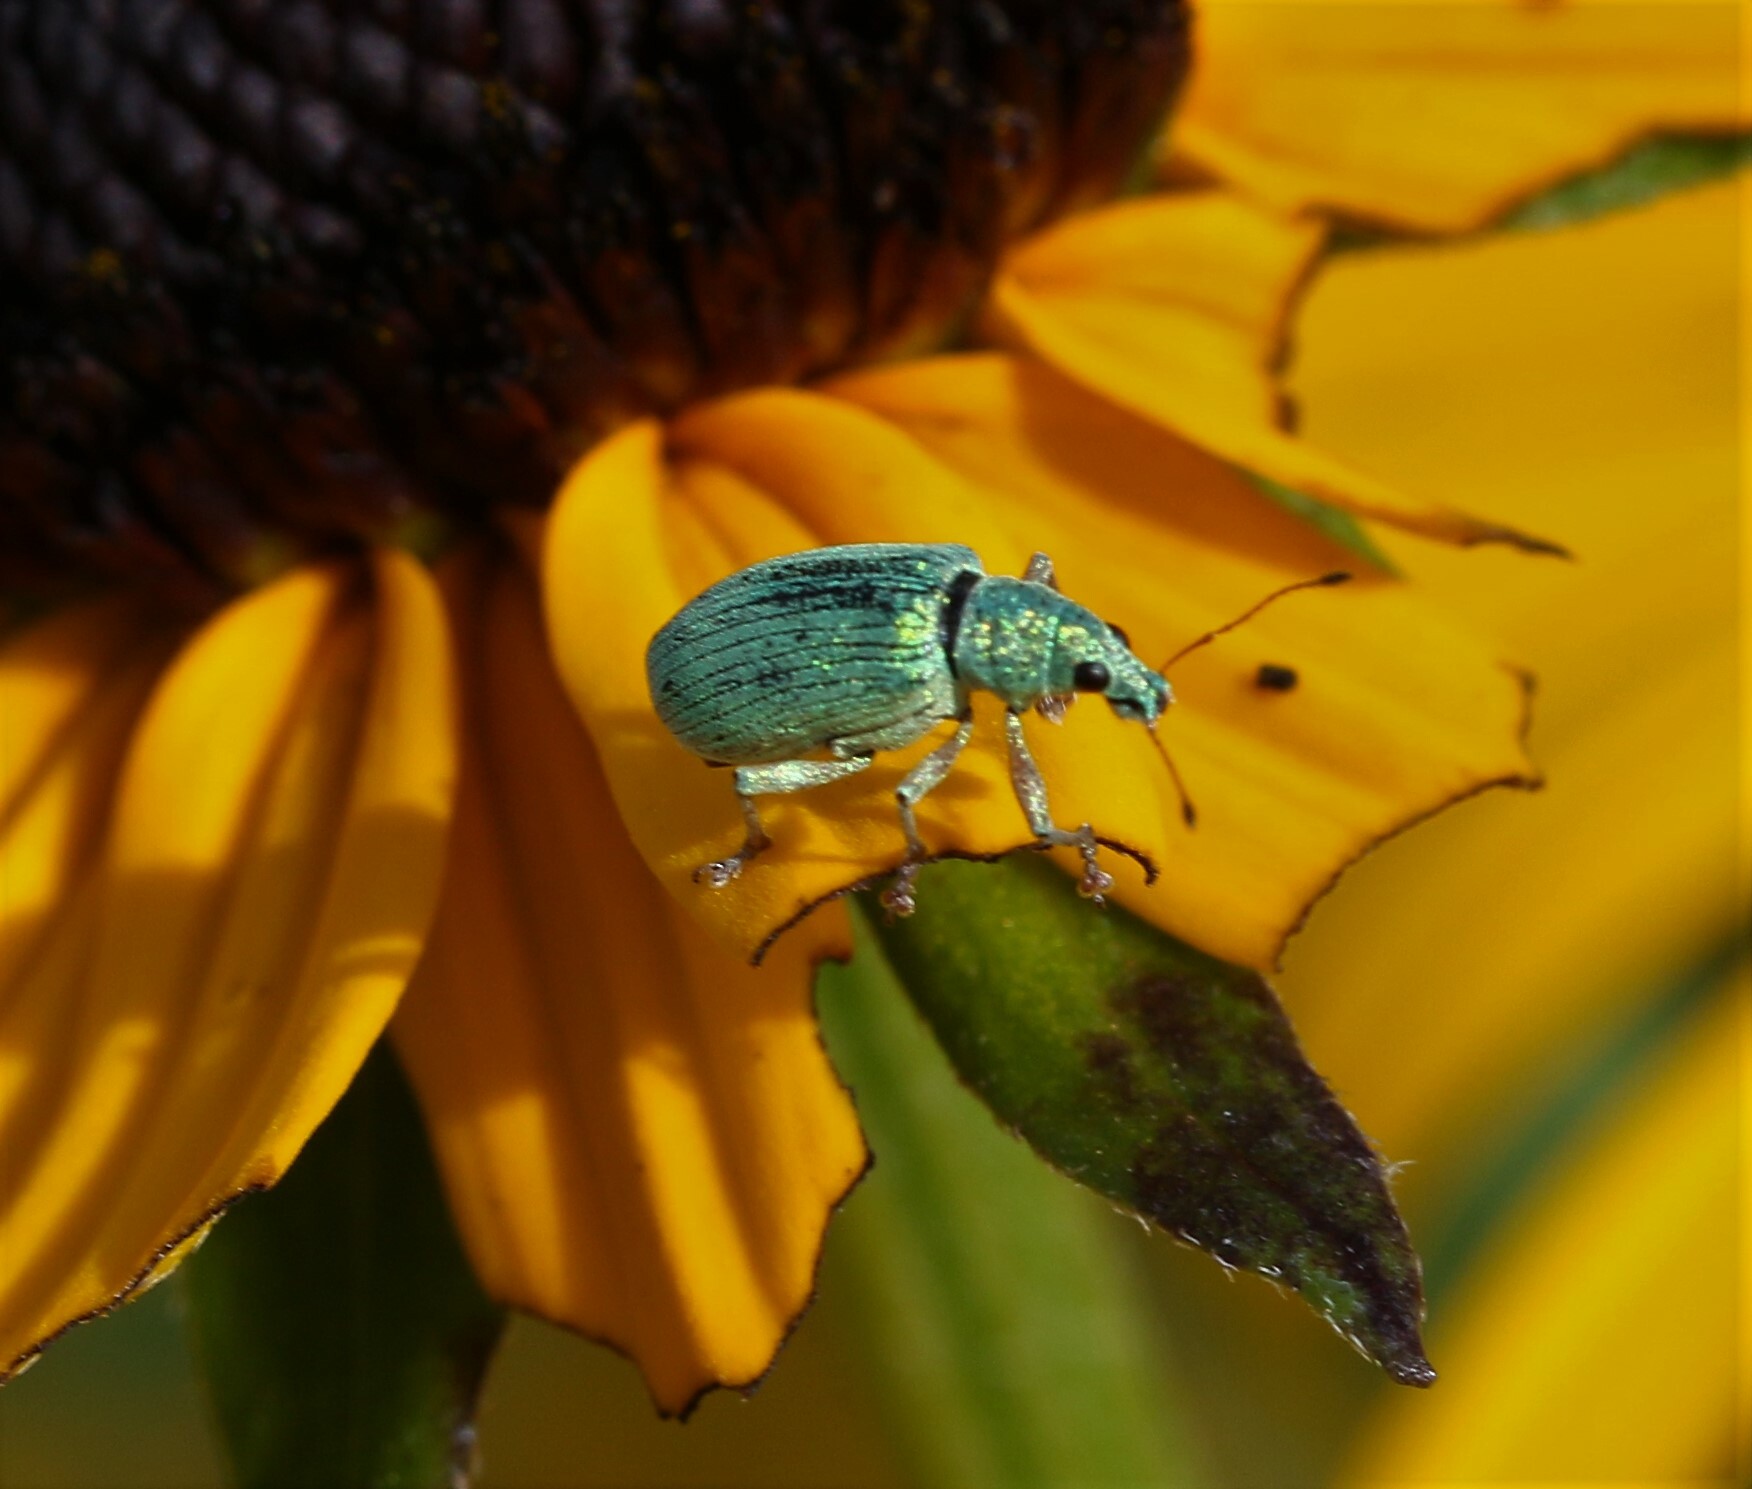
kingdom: Animalia
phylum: Arthropoda
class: Insecta
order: Coleoptera
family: Curculionidae
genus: Polydrusus
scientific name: Polydrusus formosus
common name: Weevil
